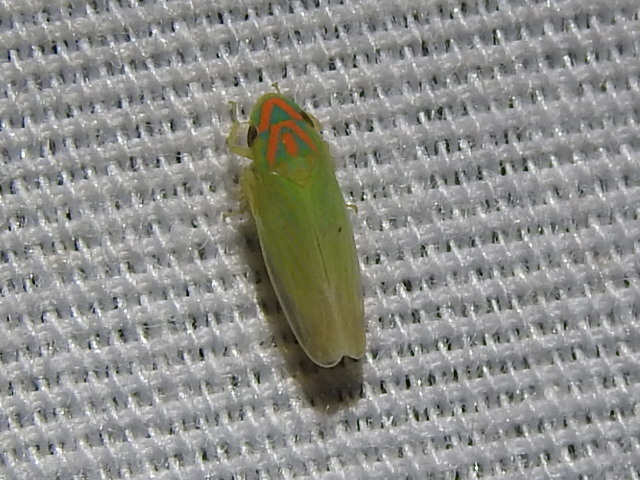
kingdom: Animalia
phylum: Arthropoda
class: Insecta
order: Hemiptera
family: Cicadellidae
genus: Spangbergiella
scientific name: Spangbergiella vulnerata
